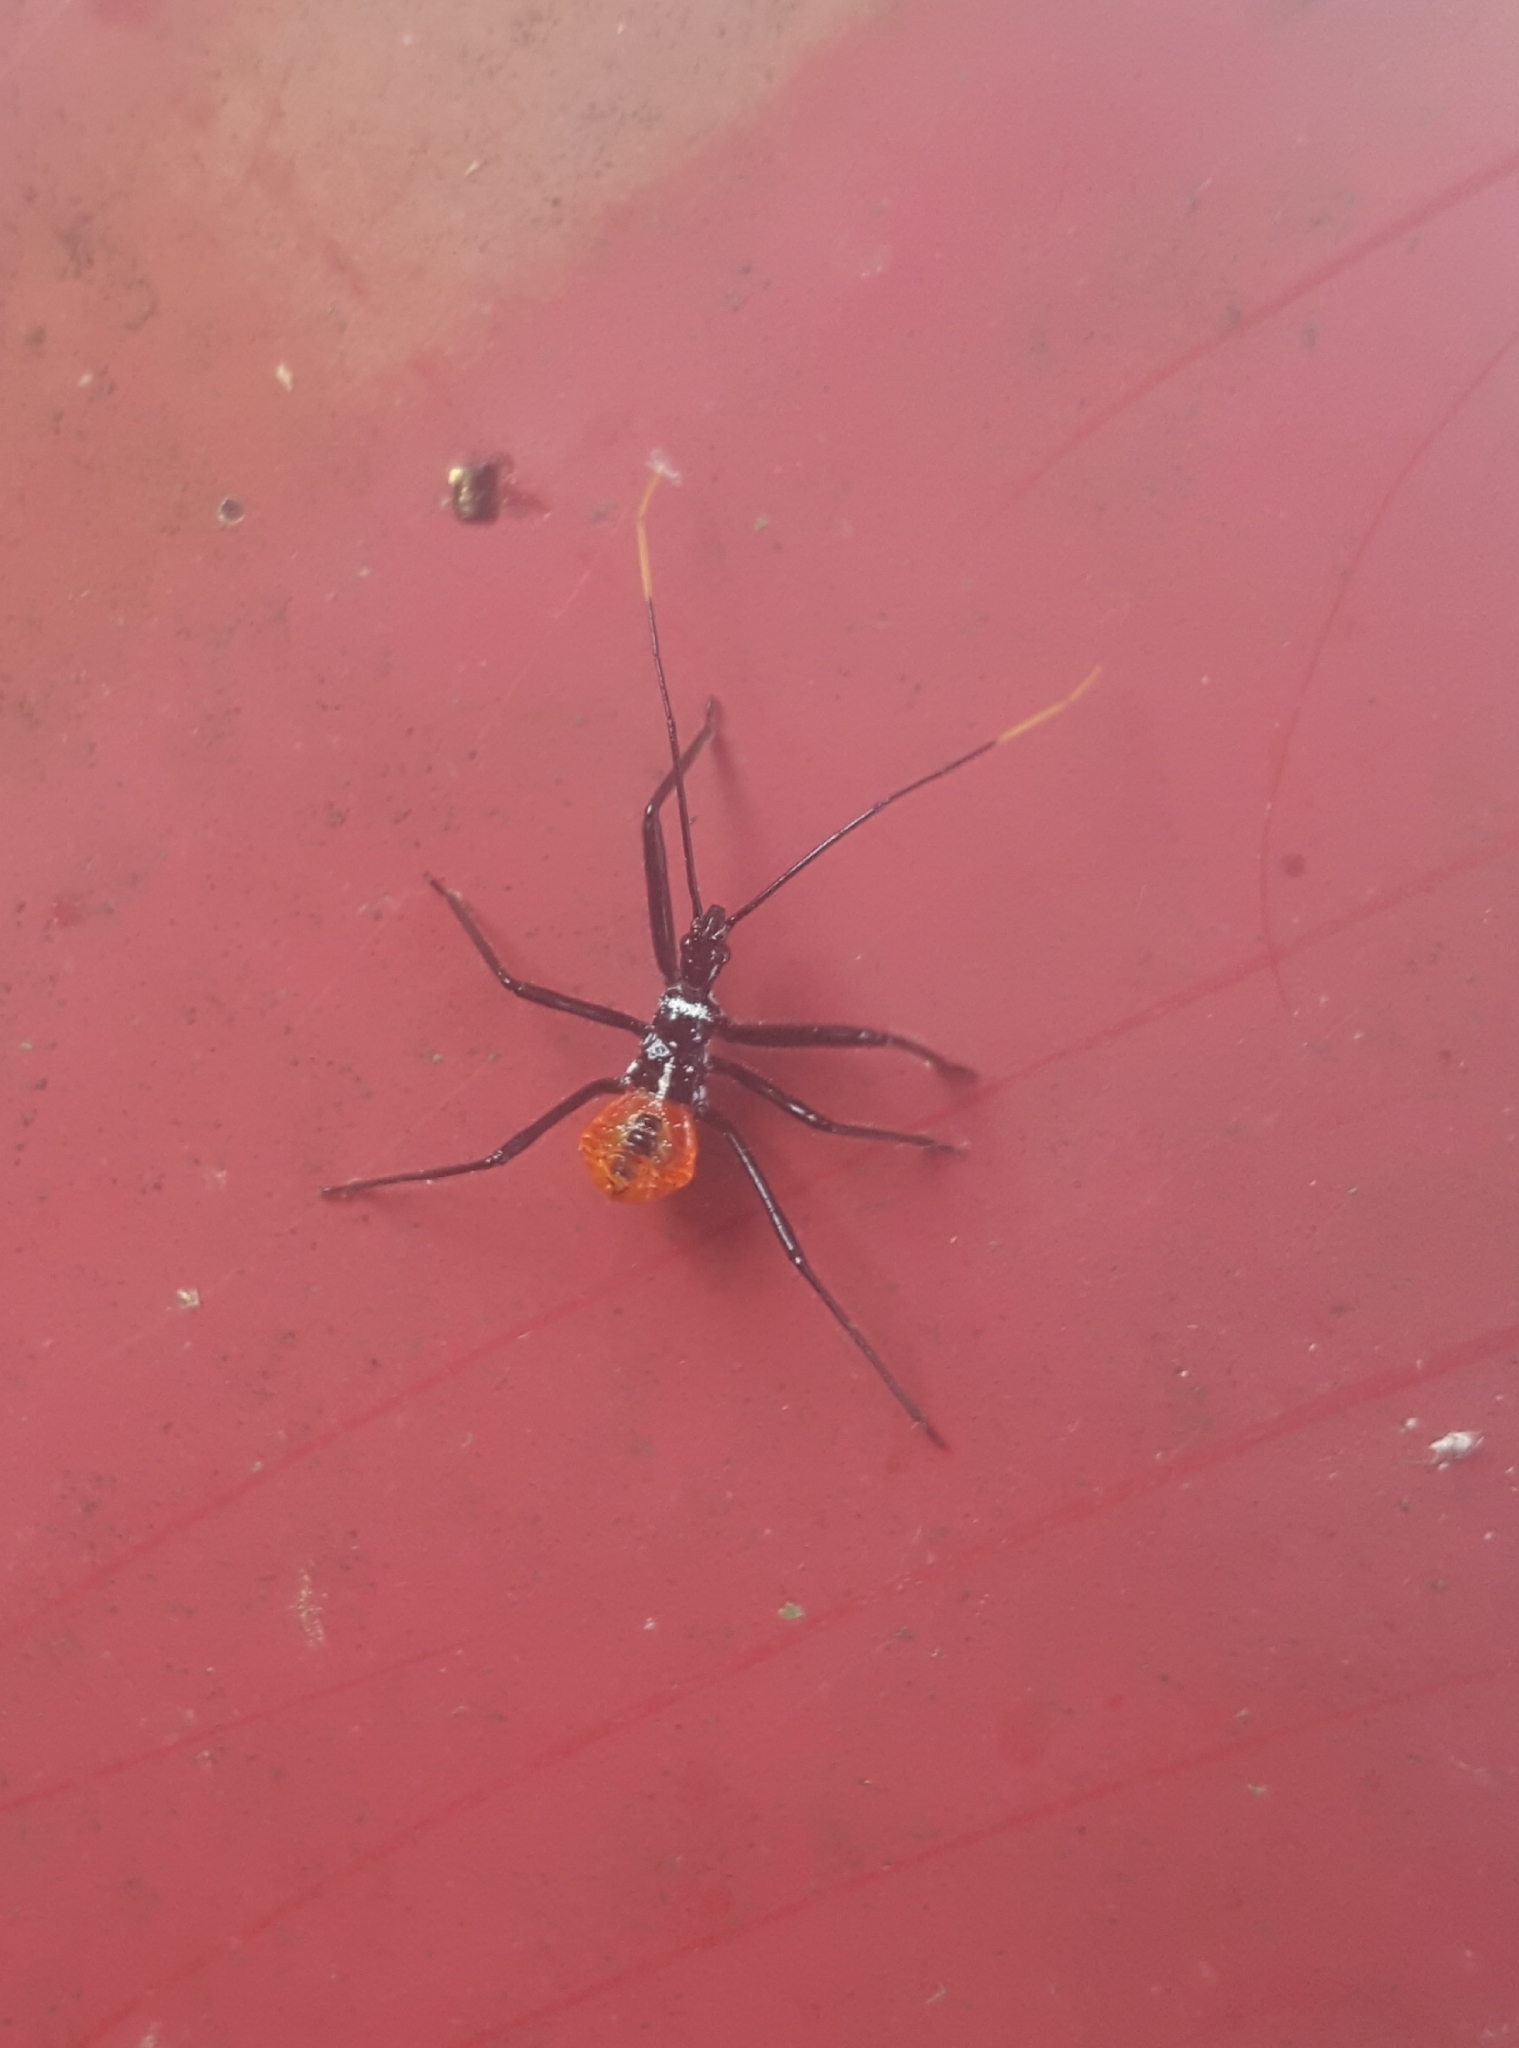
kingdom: Animalia
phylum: Arthropoda
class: Insecta
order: Hemiptera
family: Reduviidae
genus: Arilus
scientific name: Arilus cristatus
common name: North american wheel bug
